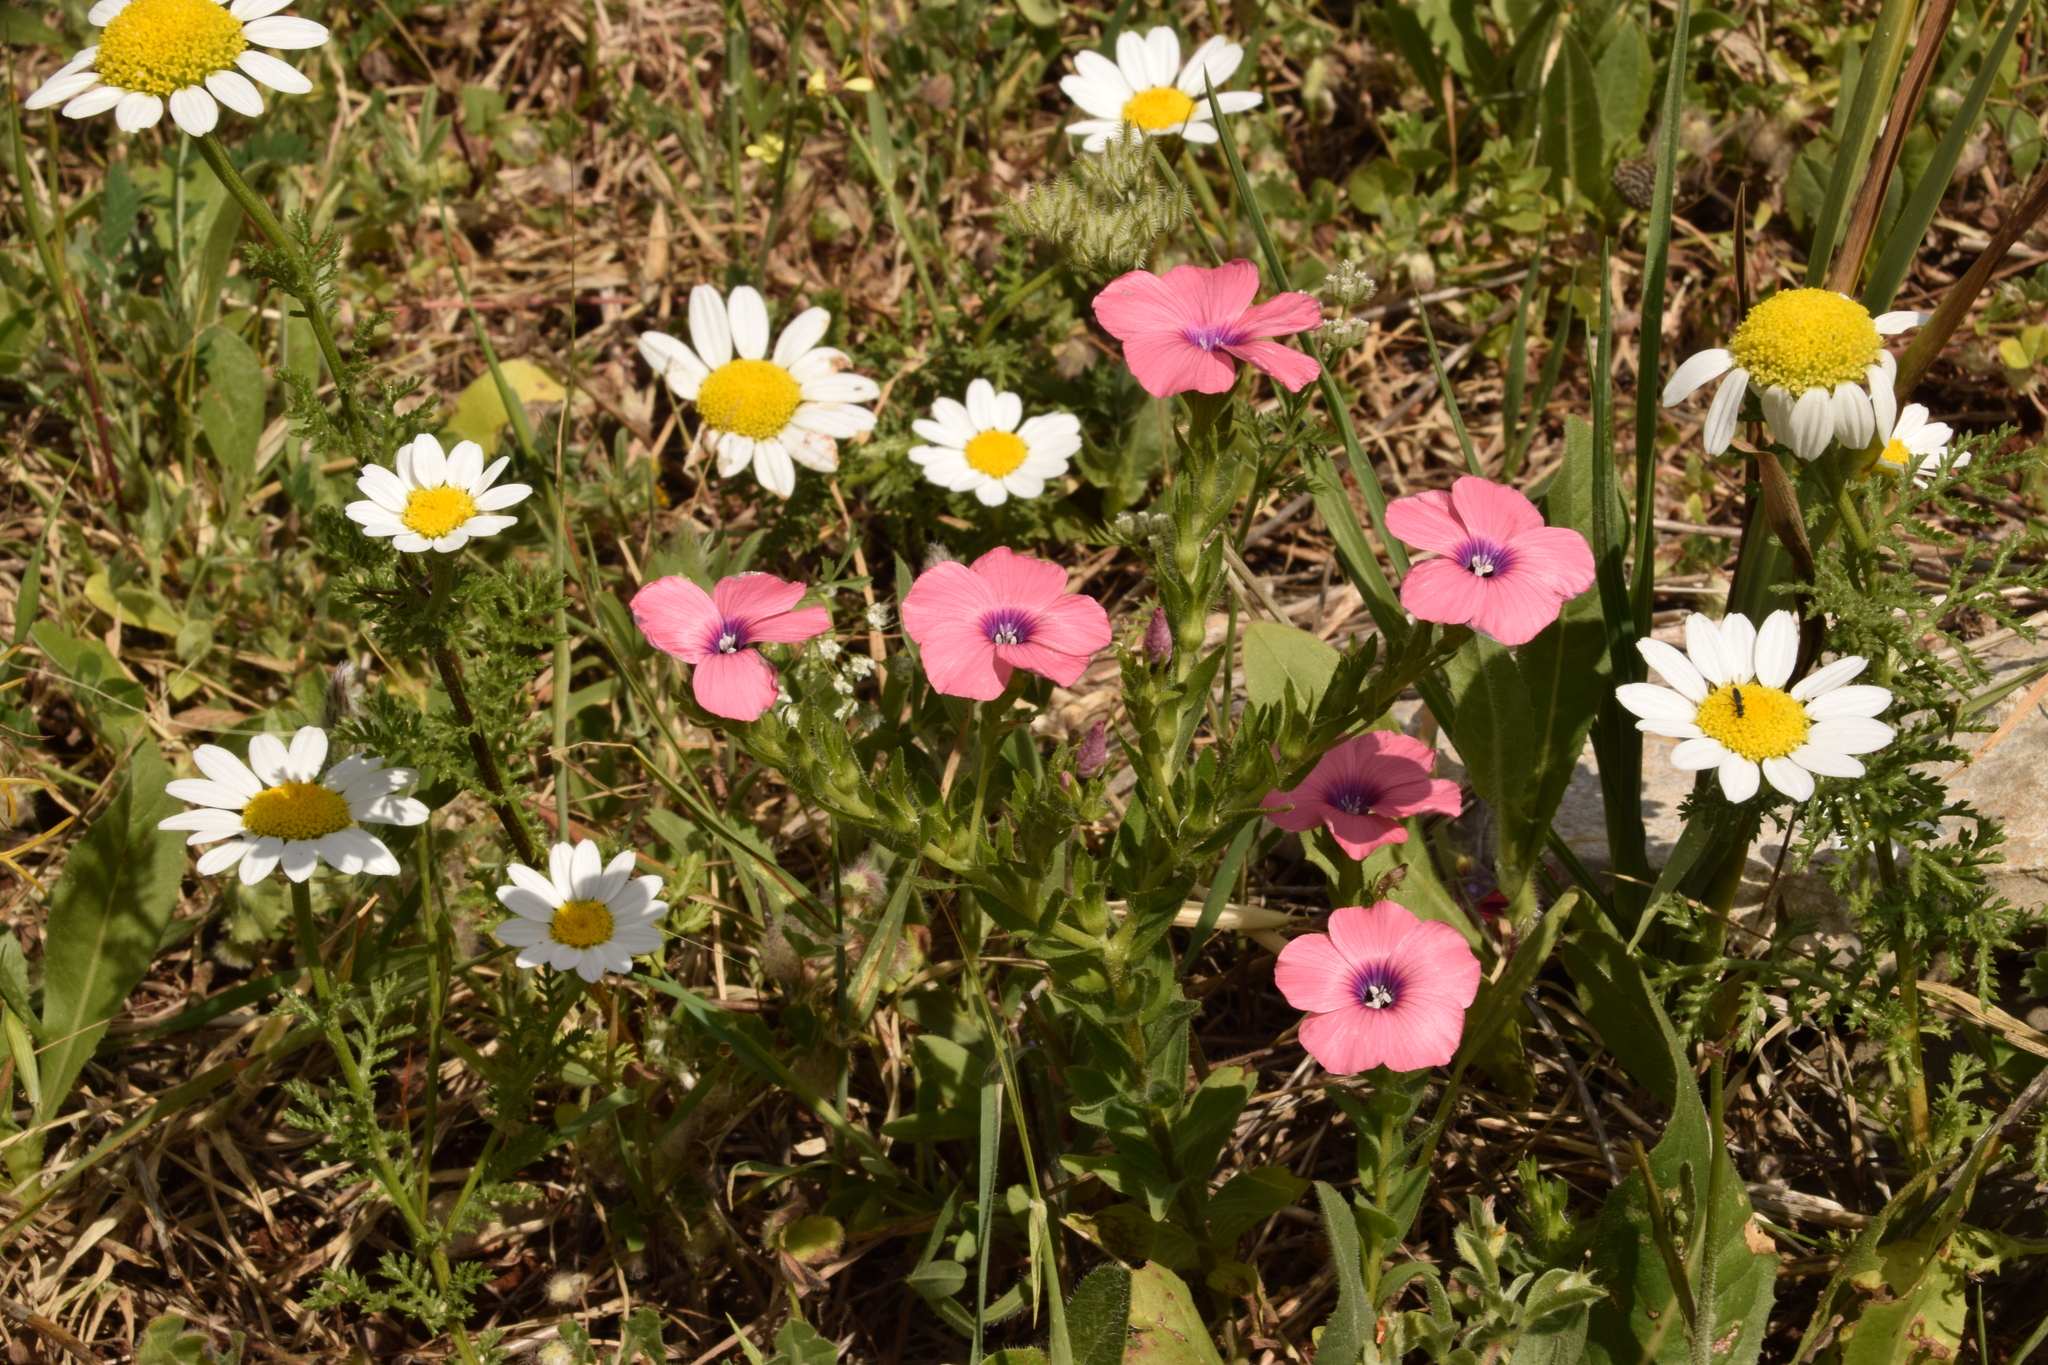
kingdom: Plantae
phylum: Tracheophyta
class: Magnoliopsida
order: Malpighiales
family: Linaceae
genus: Linum
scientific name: Linum pubescens
